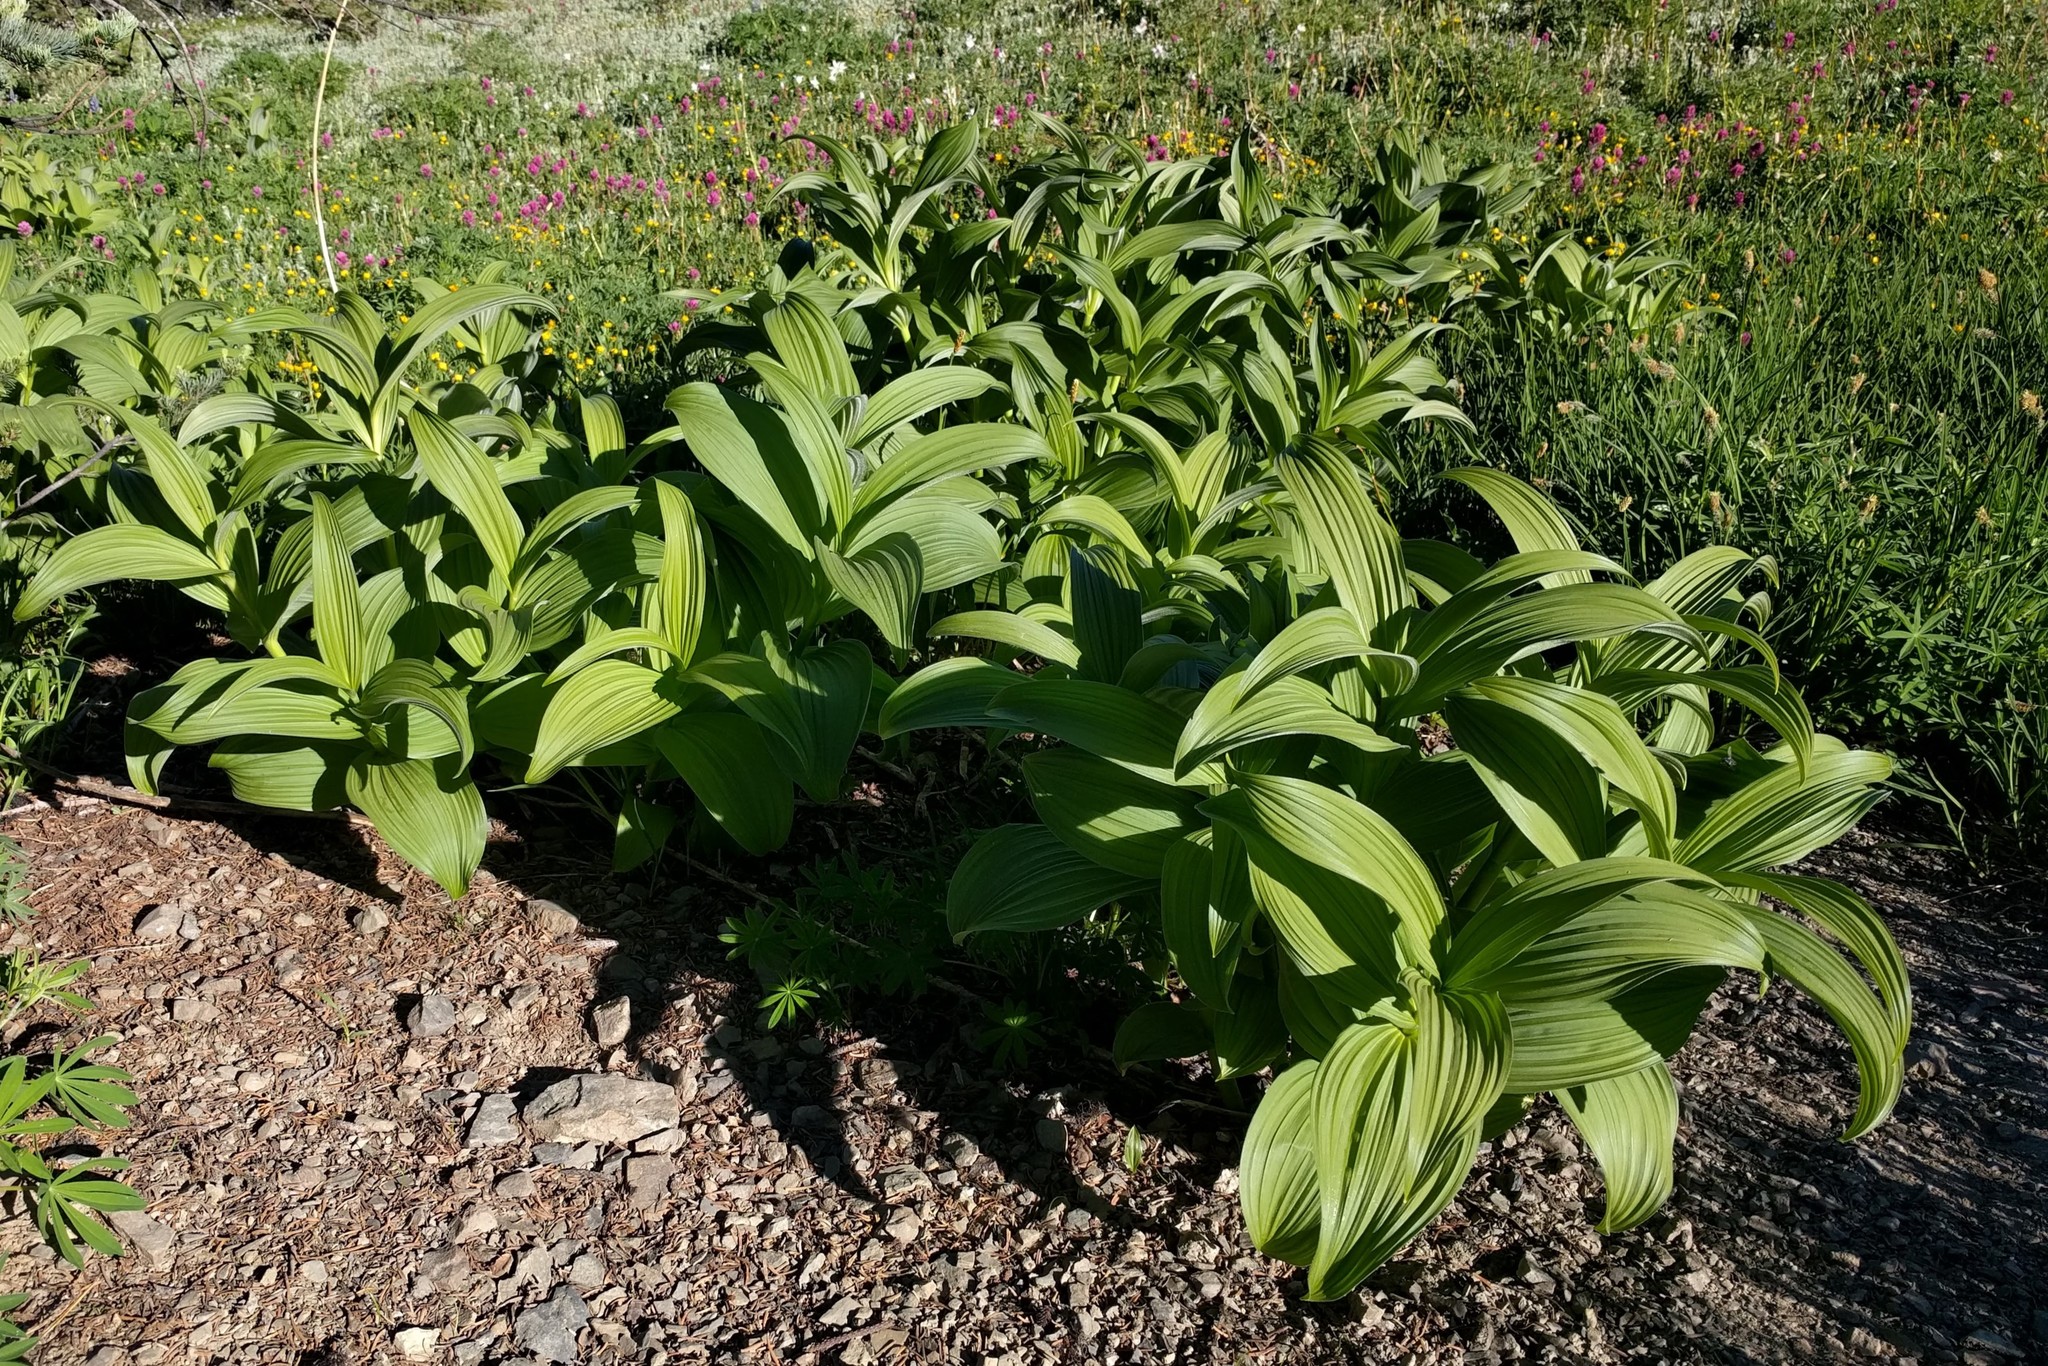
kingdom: Plantae
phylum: Tracheophyta
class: Liliopsida
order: Liliales
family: Melanthiaceae
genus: Veratrum
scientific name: Veratrum viride
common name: American false hellebore
